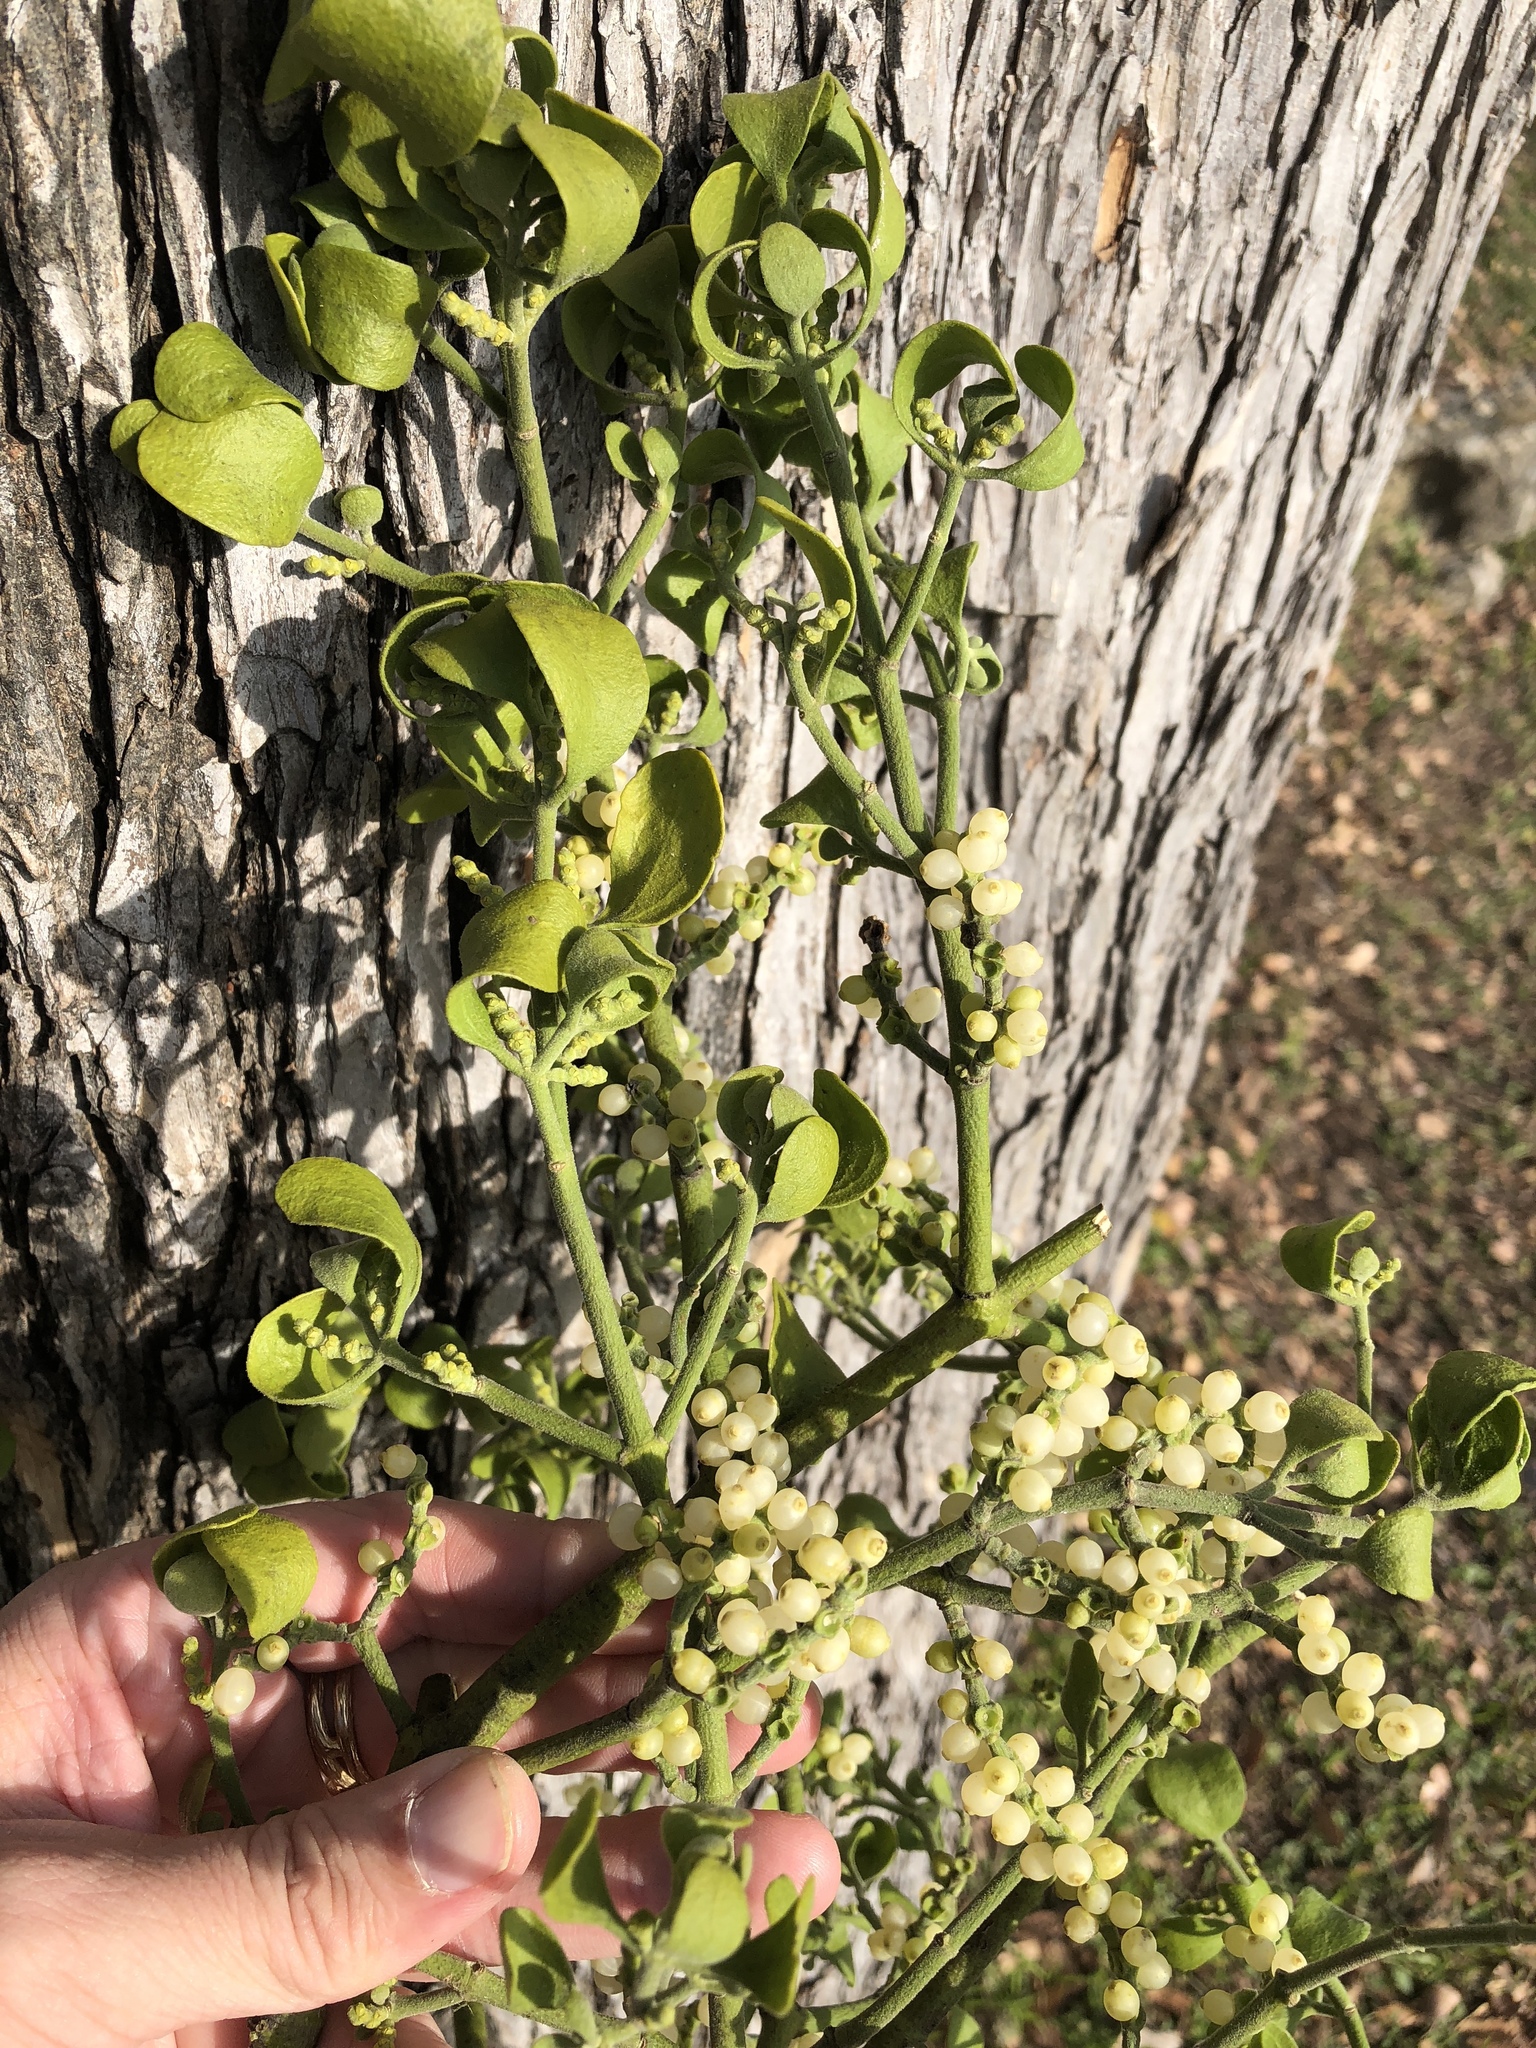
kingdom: Plantae
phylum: Tracheophyta
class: Magnoliopsida
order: Santalales
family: Viscaceae
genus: Phoradendron
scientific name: Phoradendron leucarpum
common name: Pacific mistletoe
